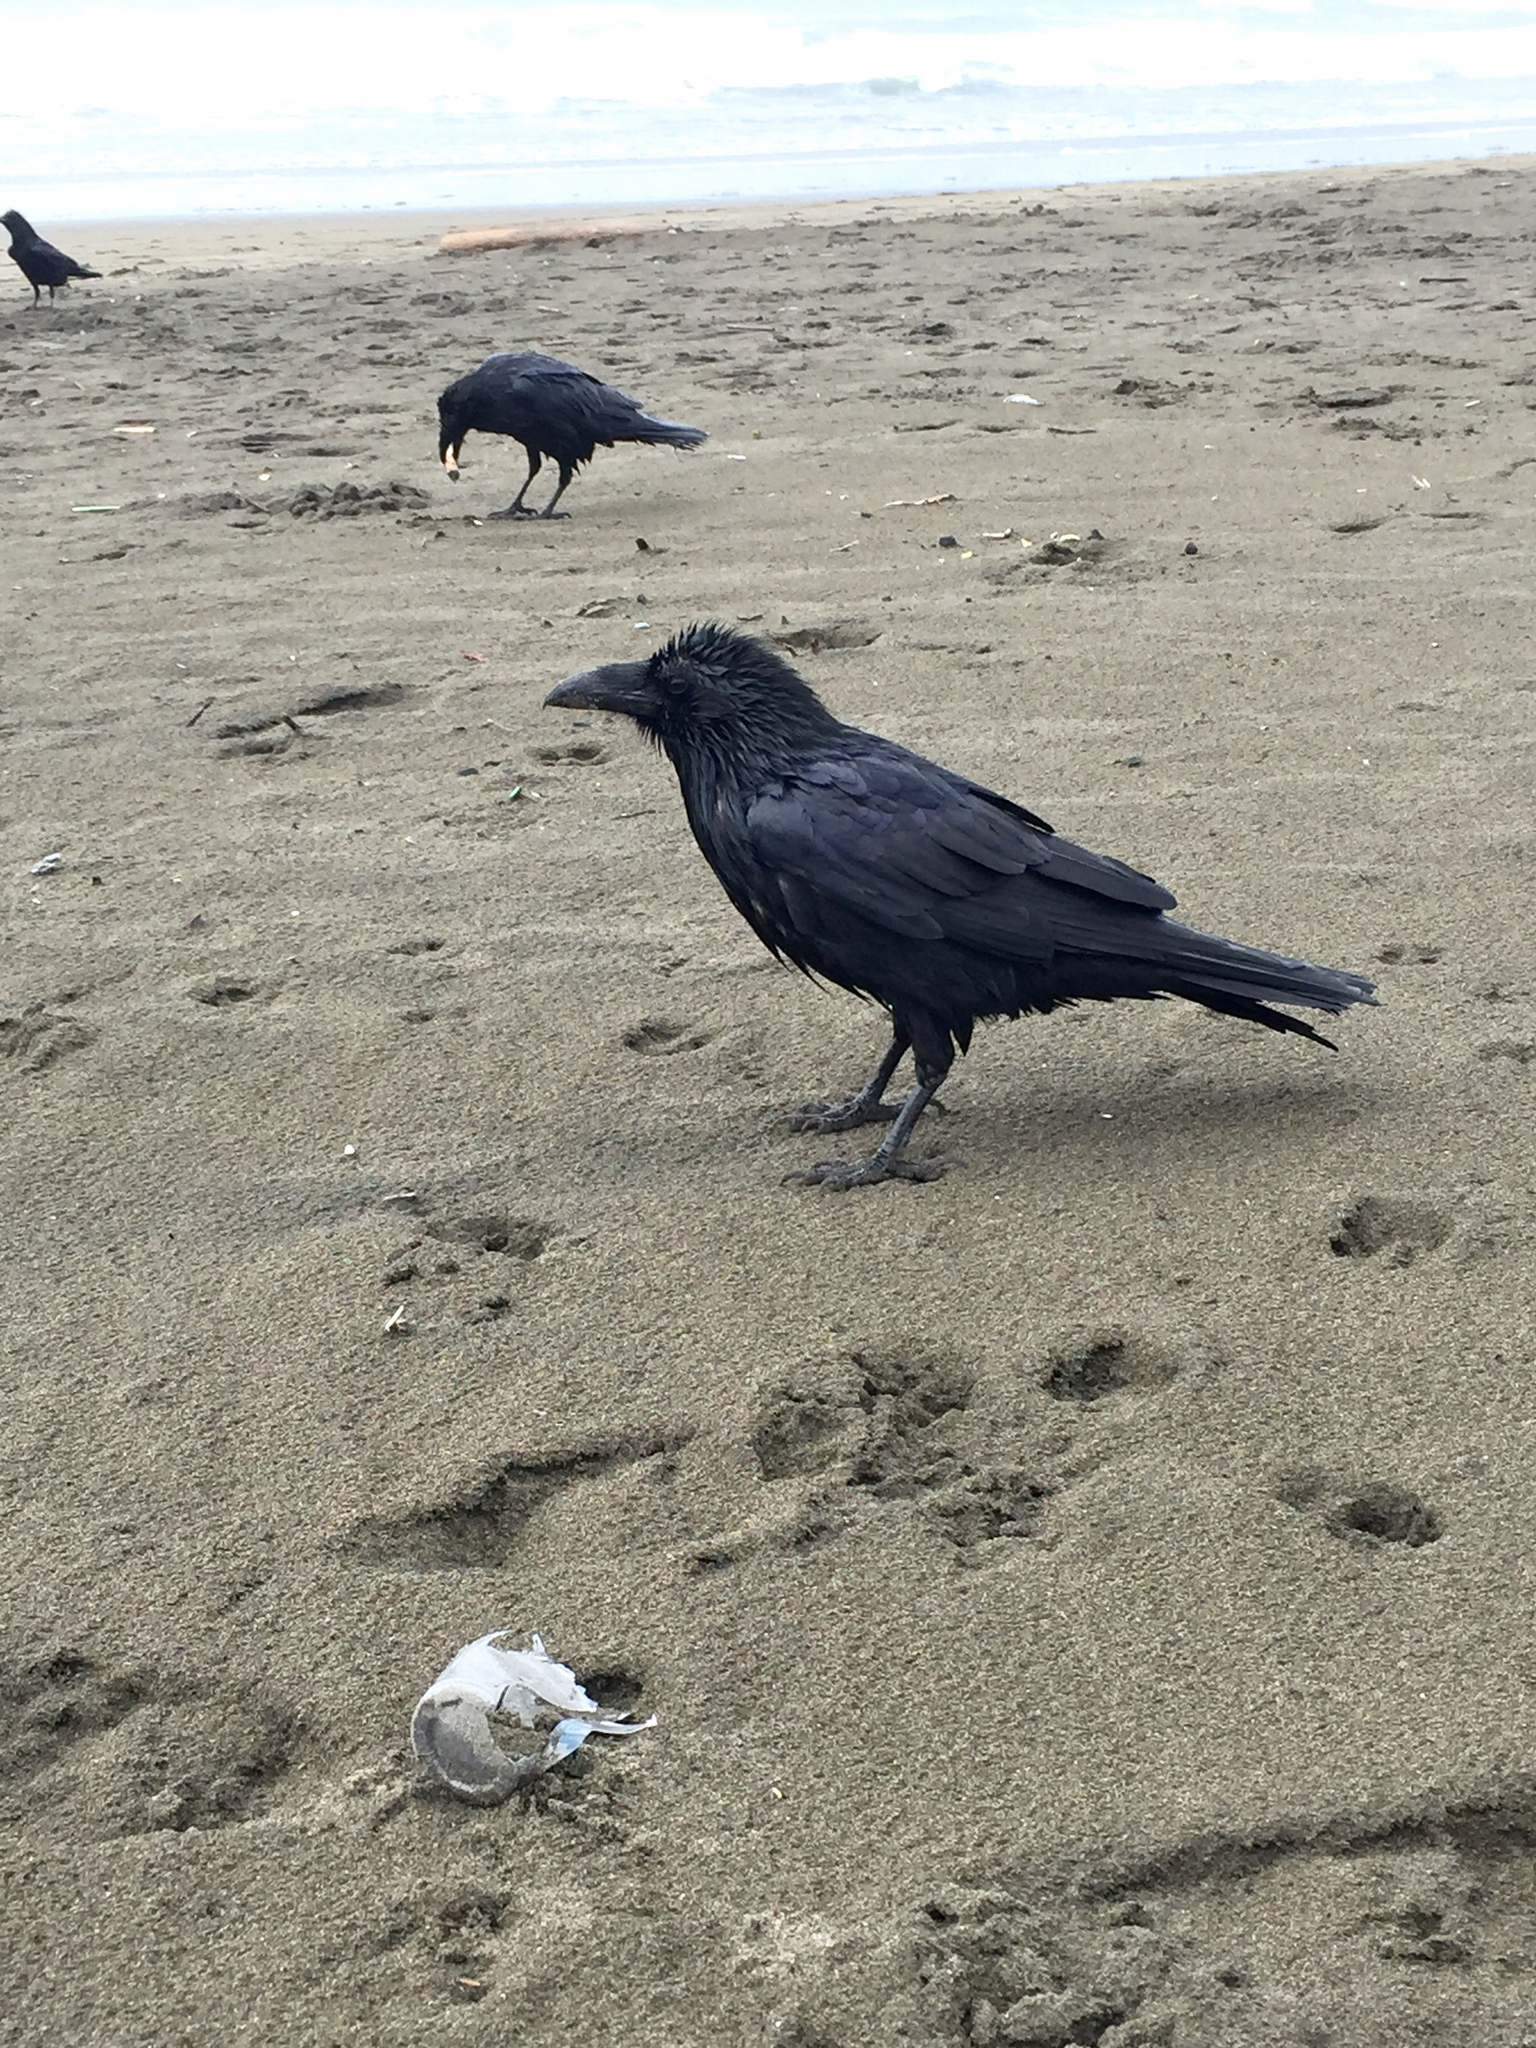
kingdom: Animalia
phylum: Chordata
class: Aves
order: Passeriformes
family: Corvidae
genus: Corvus
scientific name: Corvus corax
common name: Common raven
